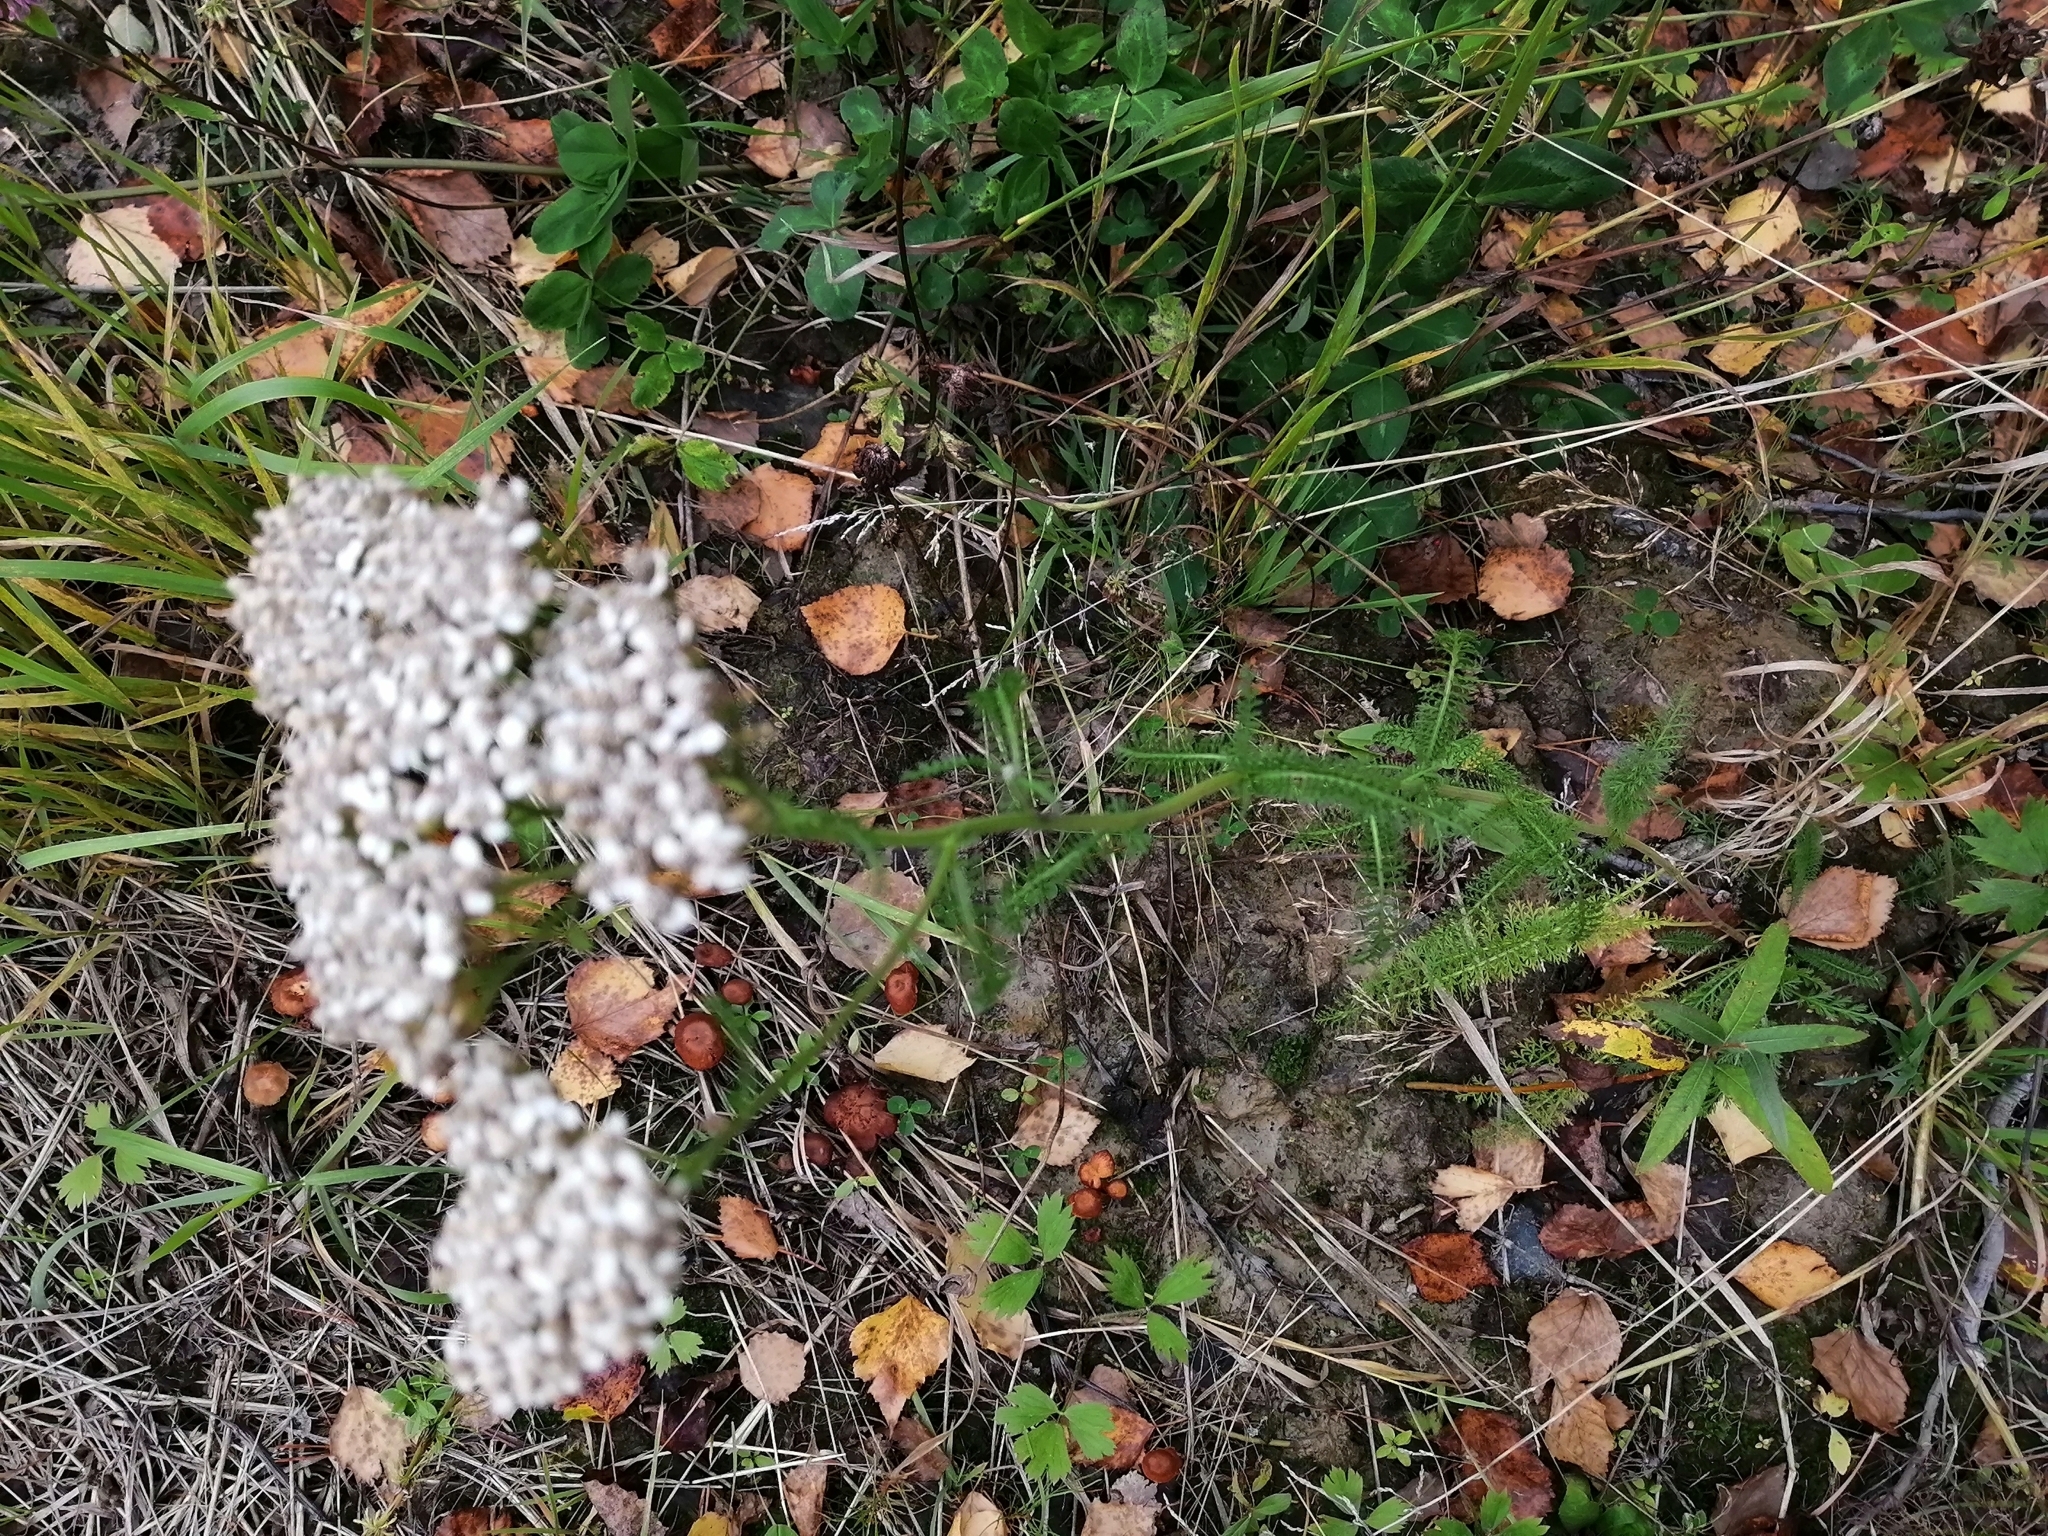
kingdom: Plantae
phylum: Tracheophyta
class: Magnoliopsida
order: Asterales
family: Asteraceae
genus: Achillea
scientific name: Achillea millefolium
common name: Yarrow
